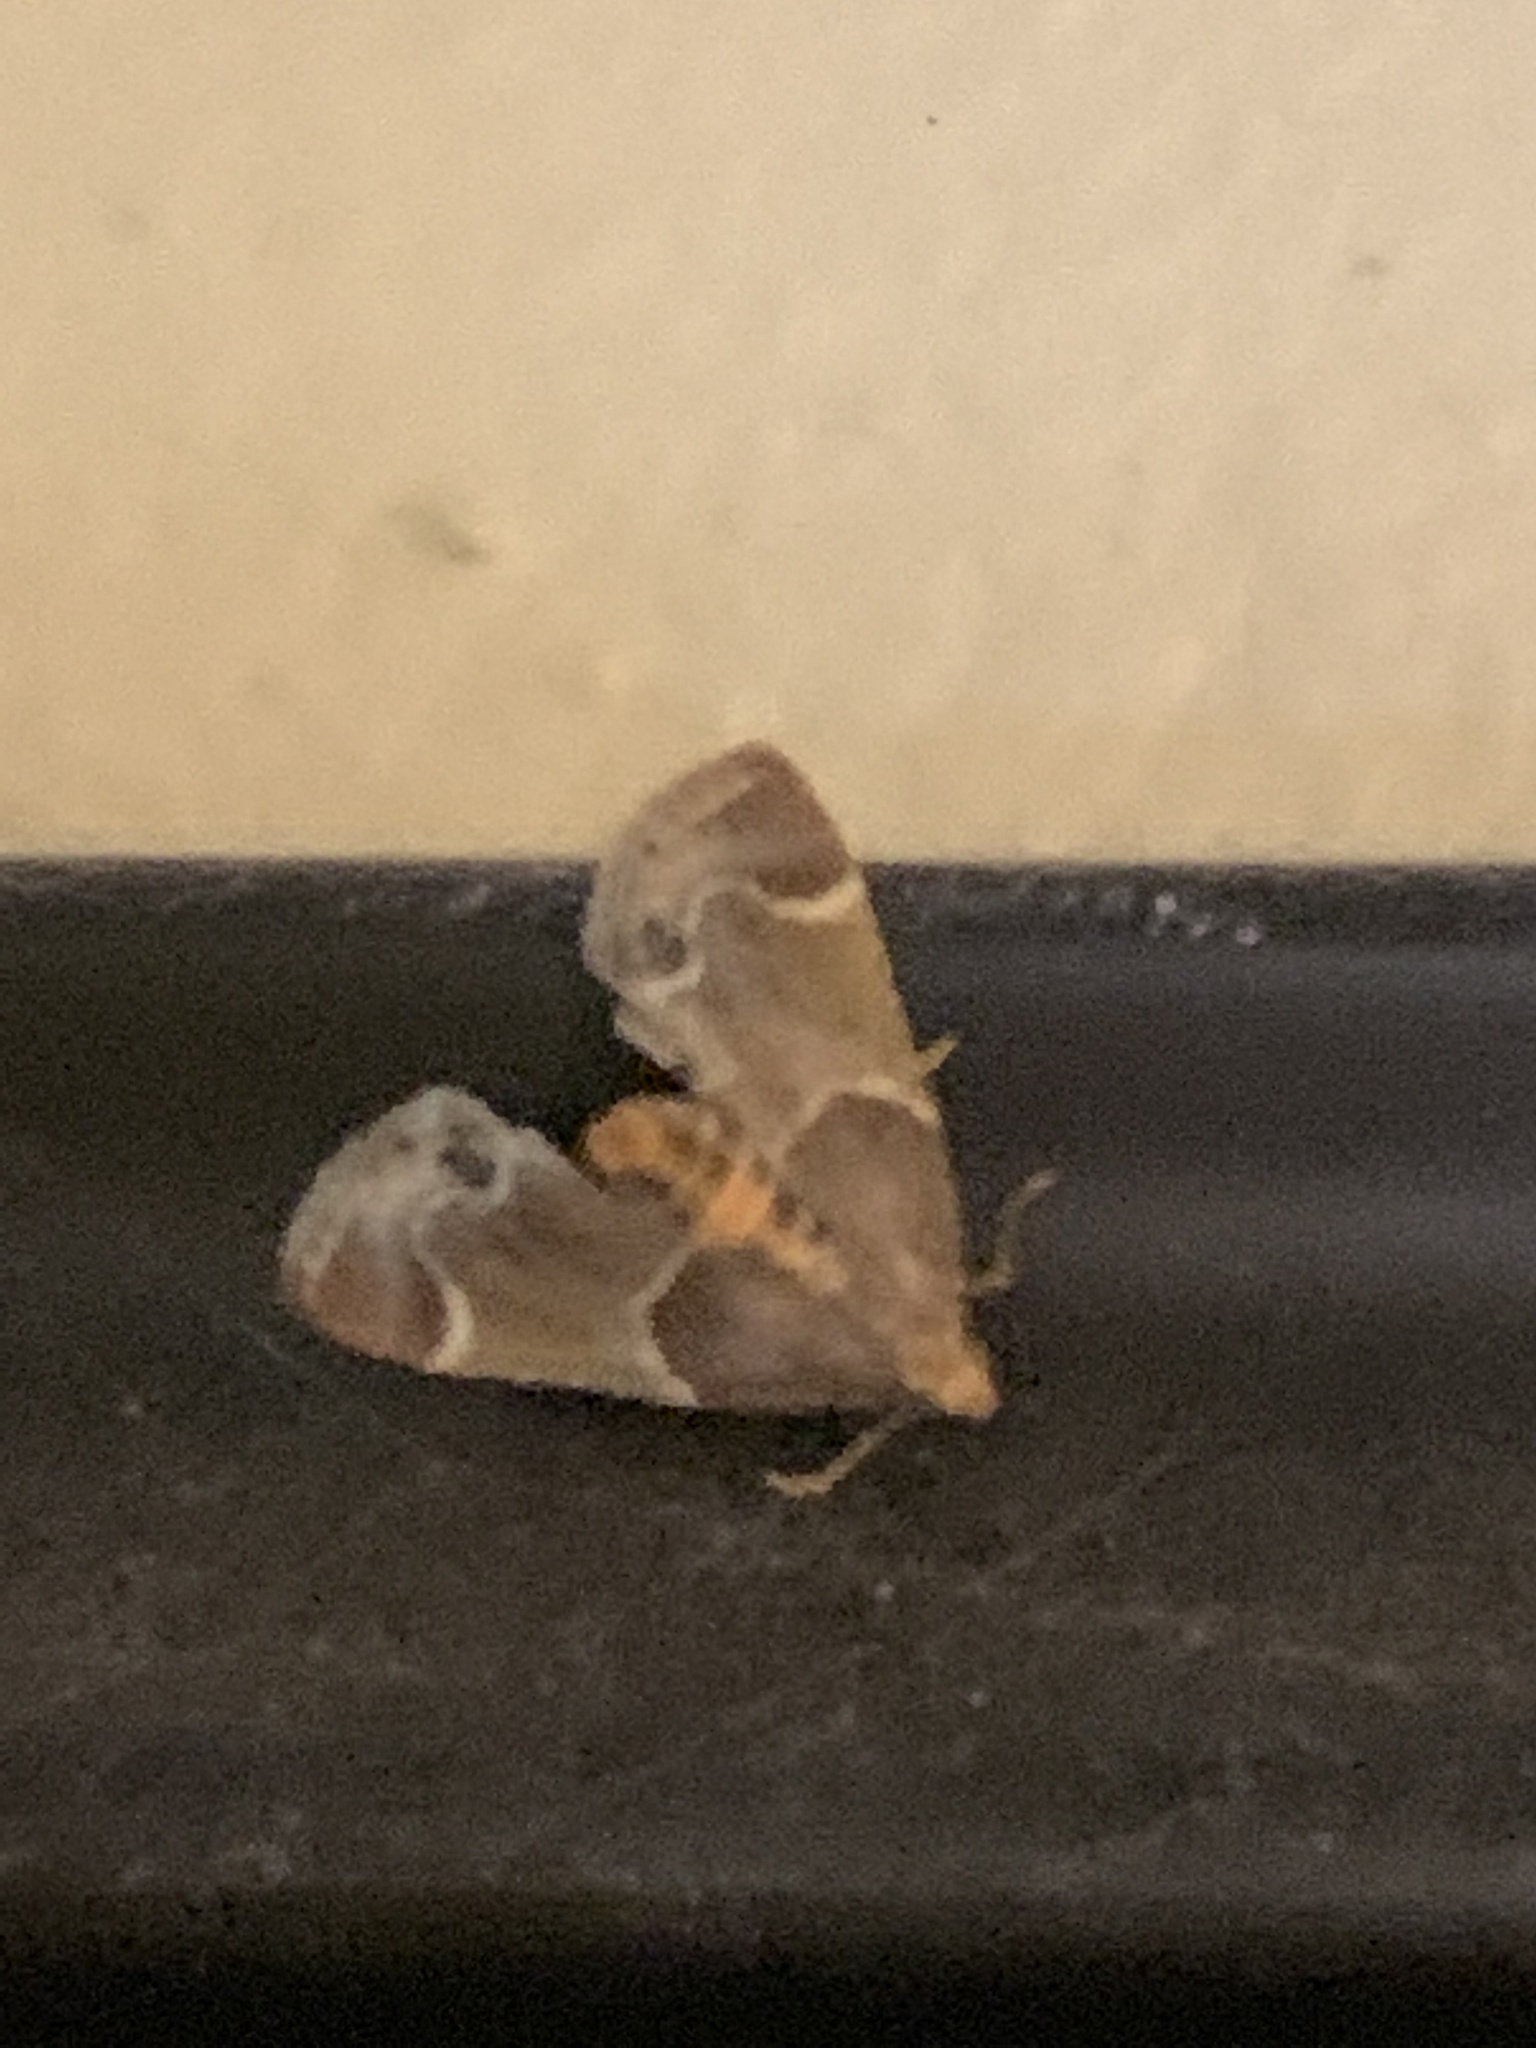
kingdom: Animalia
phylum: Arthropoda
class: Insecta
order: Lepidoptera
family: Pyralidae
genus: Pyralis
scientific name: Pyralis farinalis
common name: Meal moth
